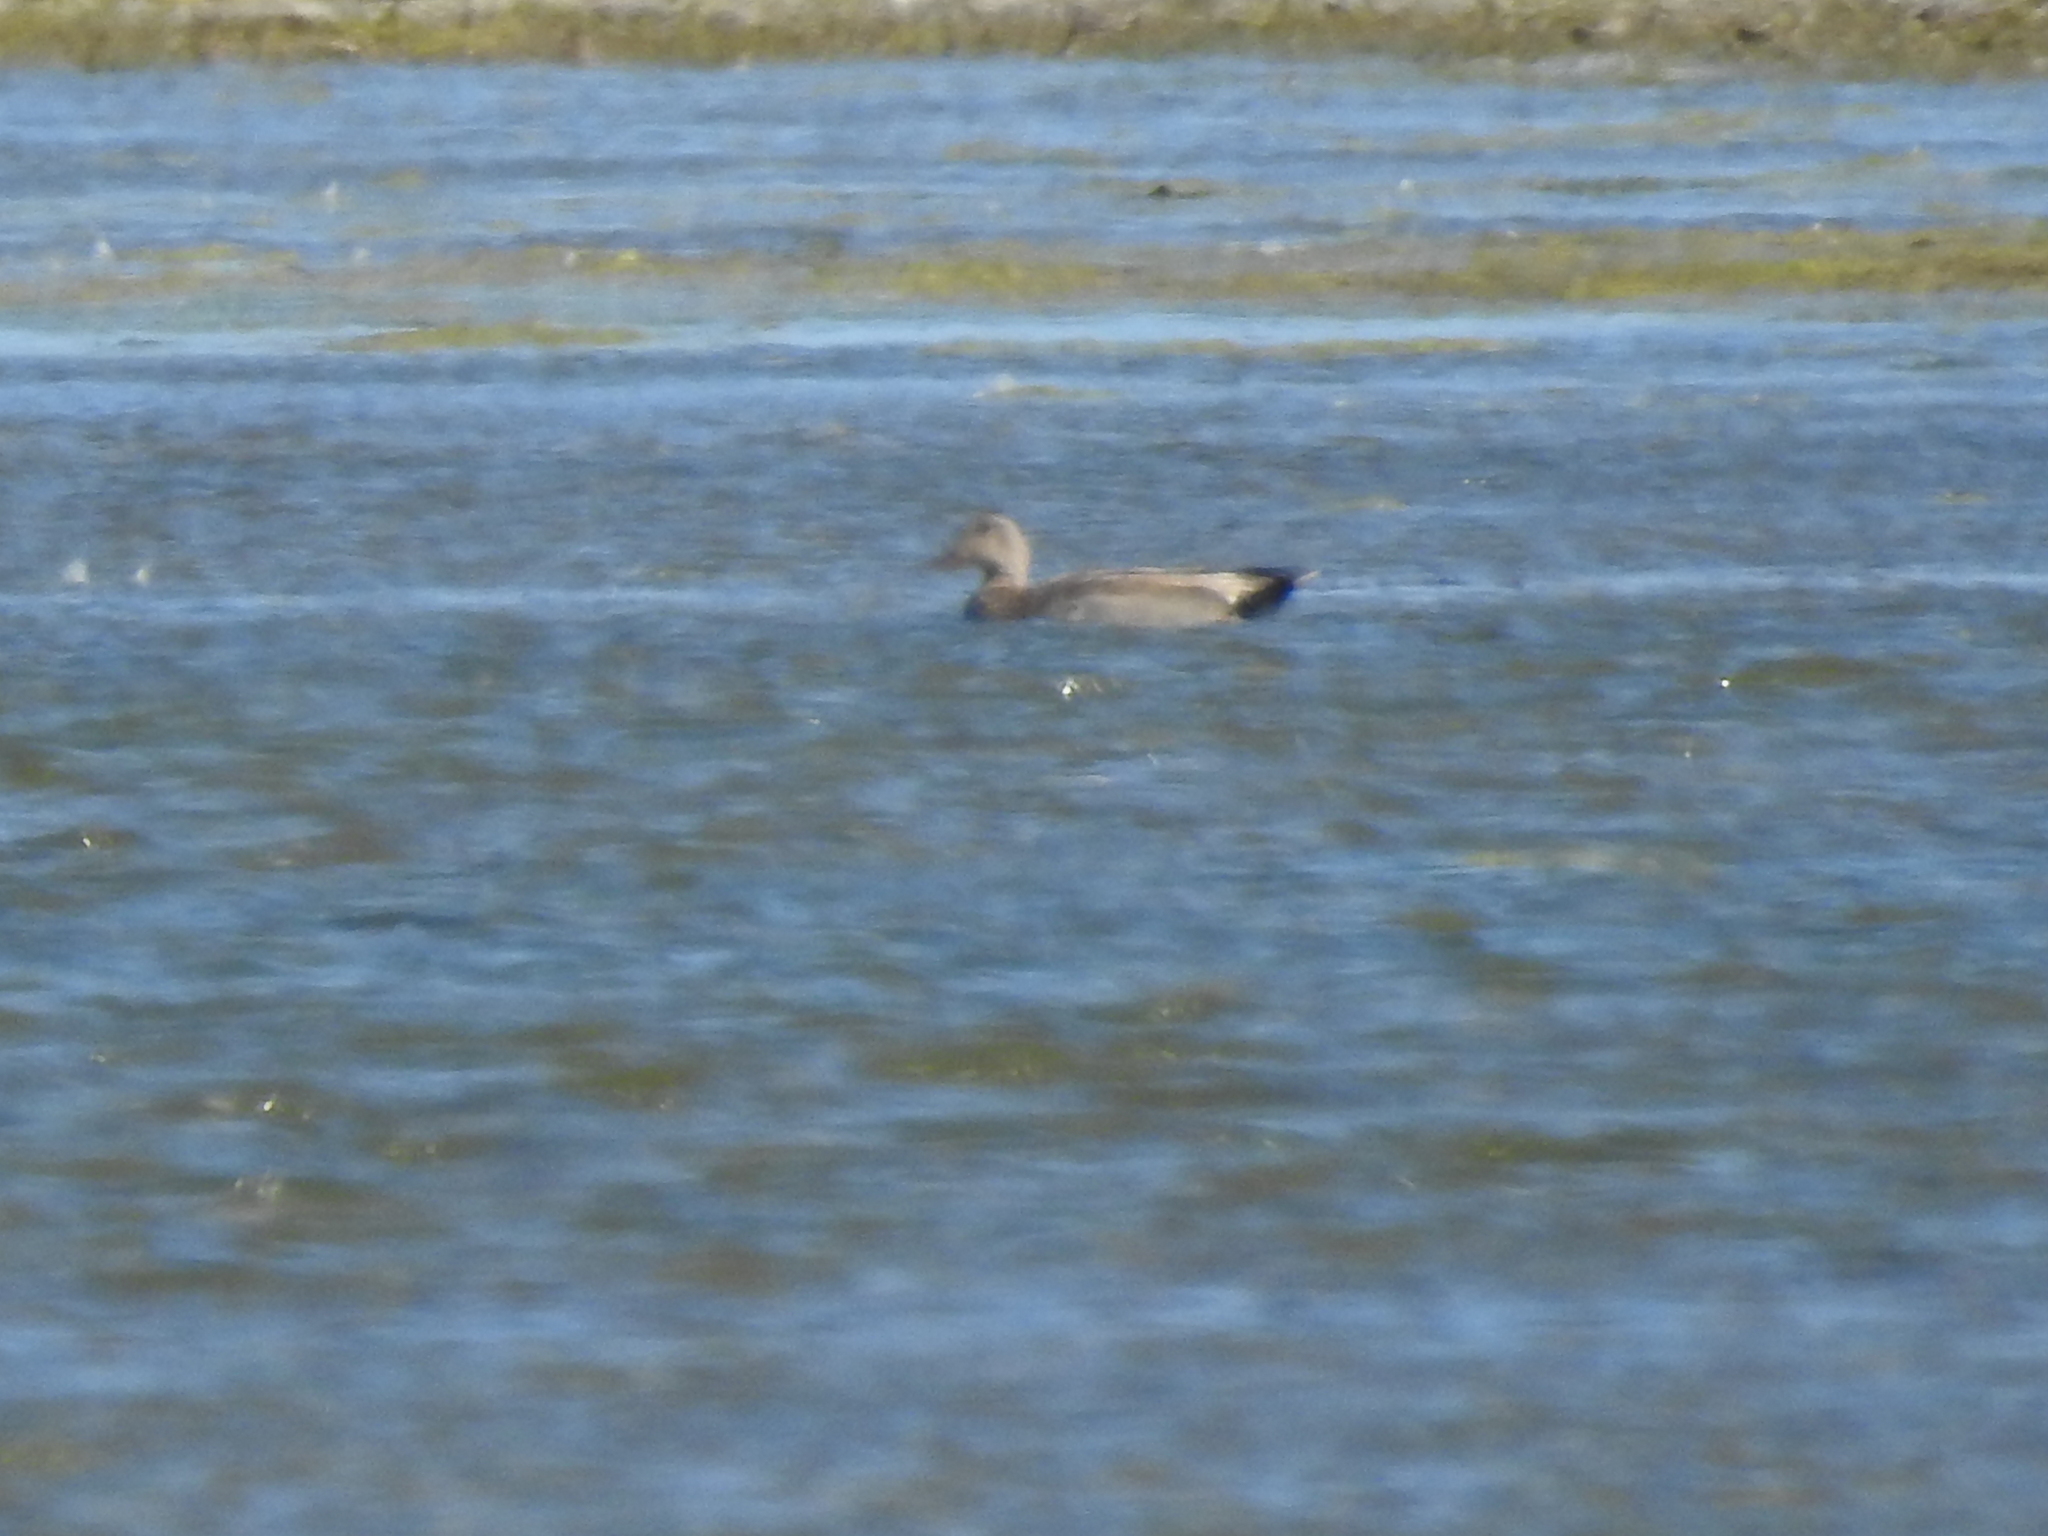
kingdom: Animalia
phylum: Chordata
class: Aves
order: Anseriformes
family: Anatidae
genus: Mareca
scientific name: Mareca strepera
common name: Gadwall
